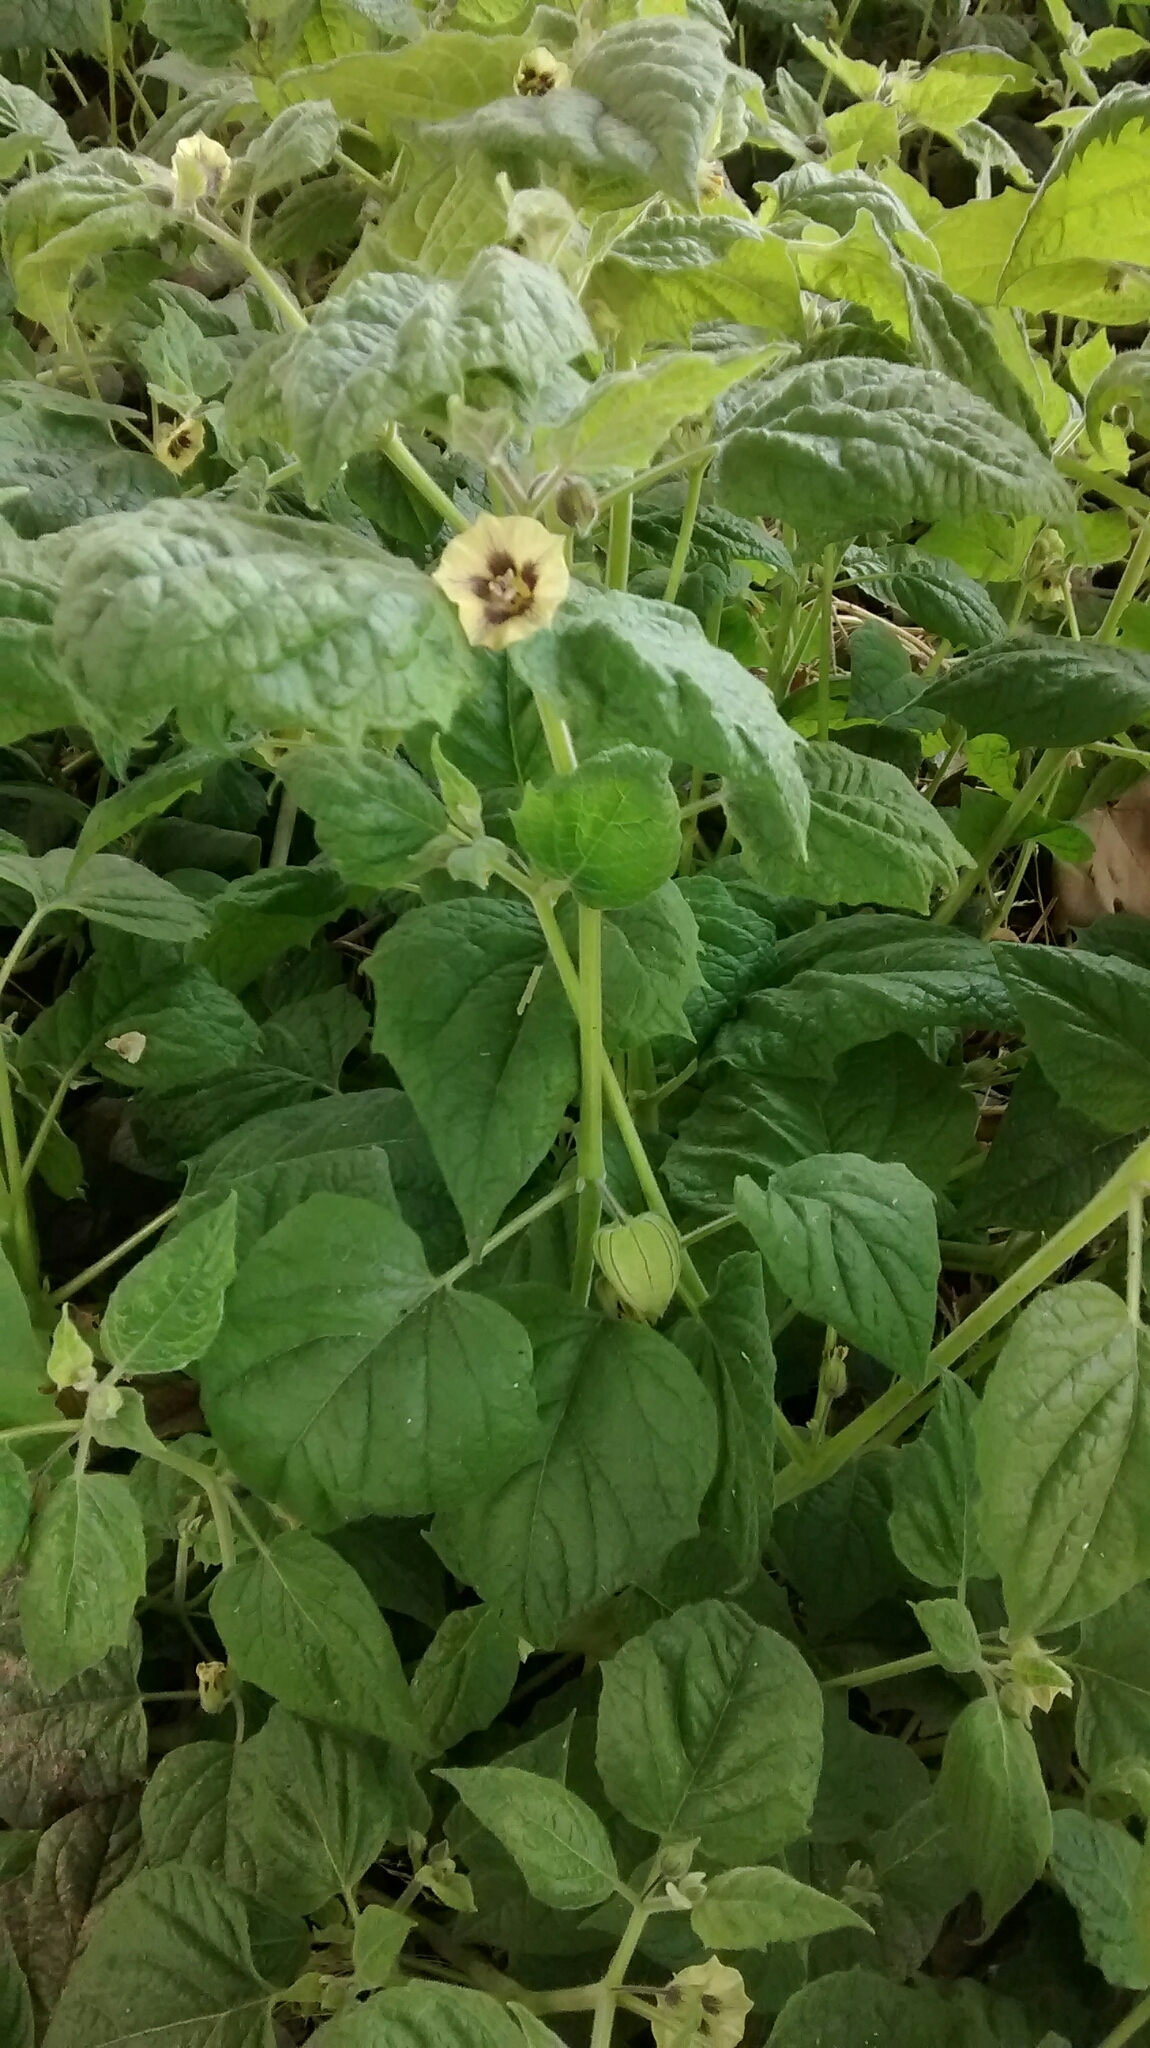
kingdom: Plantae
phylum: Tracheophyta
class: Magnoliopsida
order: Solanales
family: Solanaceae
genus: Physalis
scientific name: Physalis peruviana
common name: Cape-gooseberry
